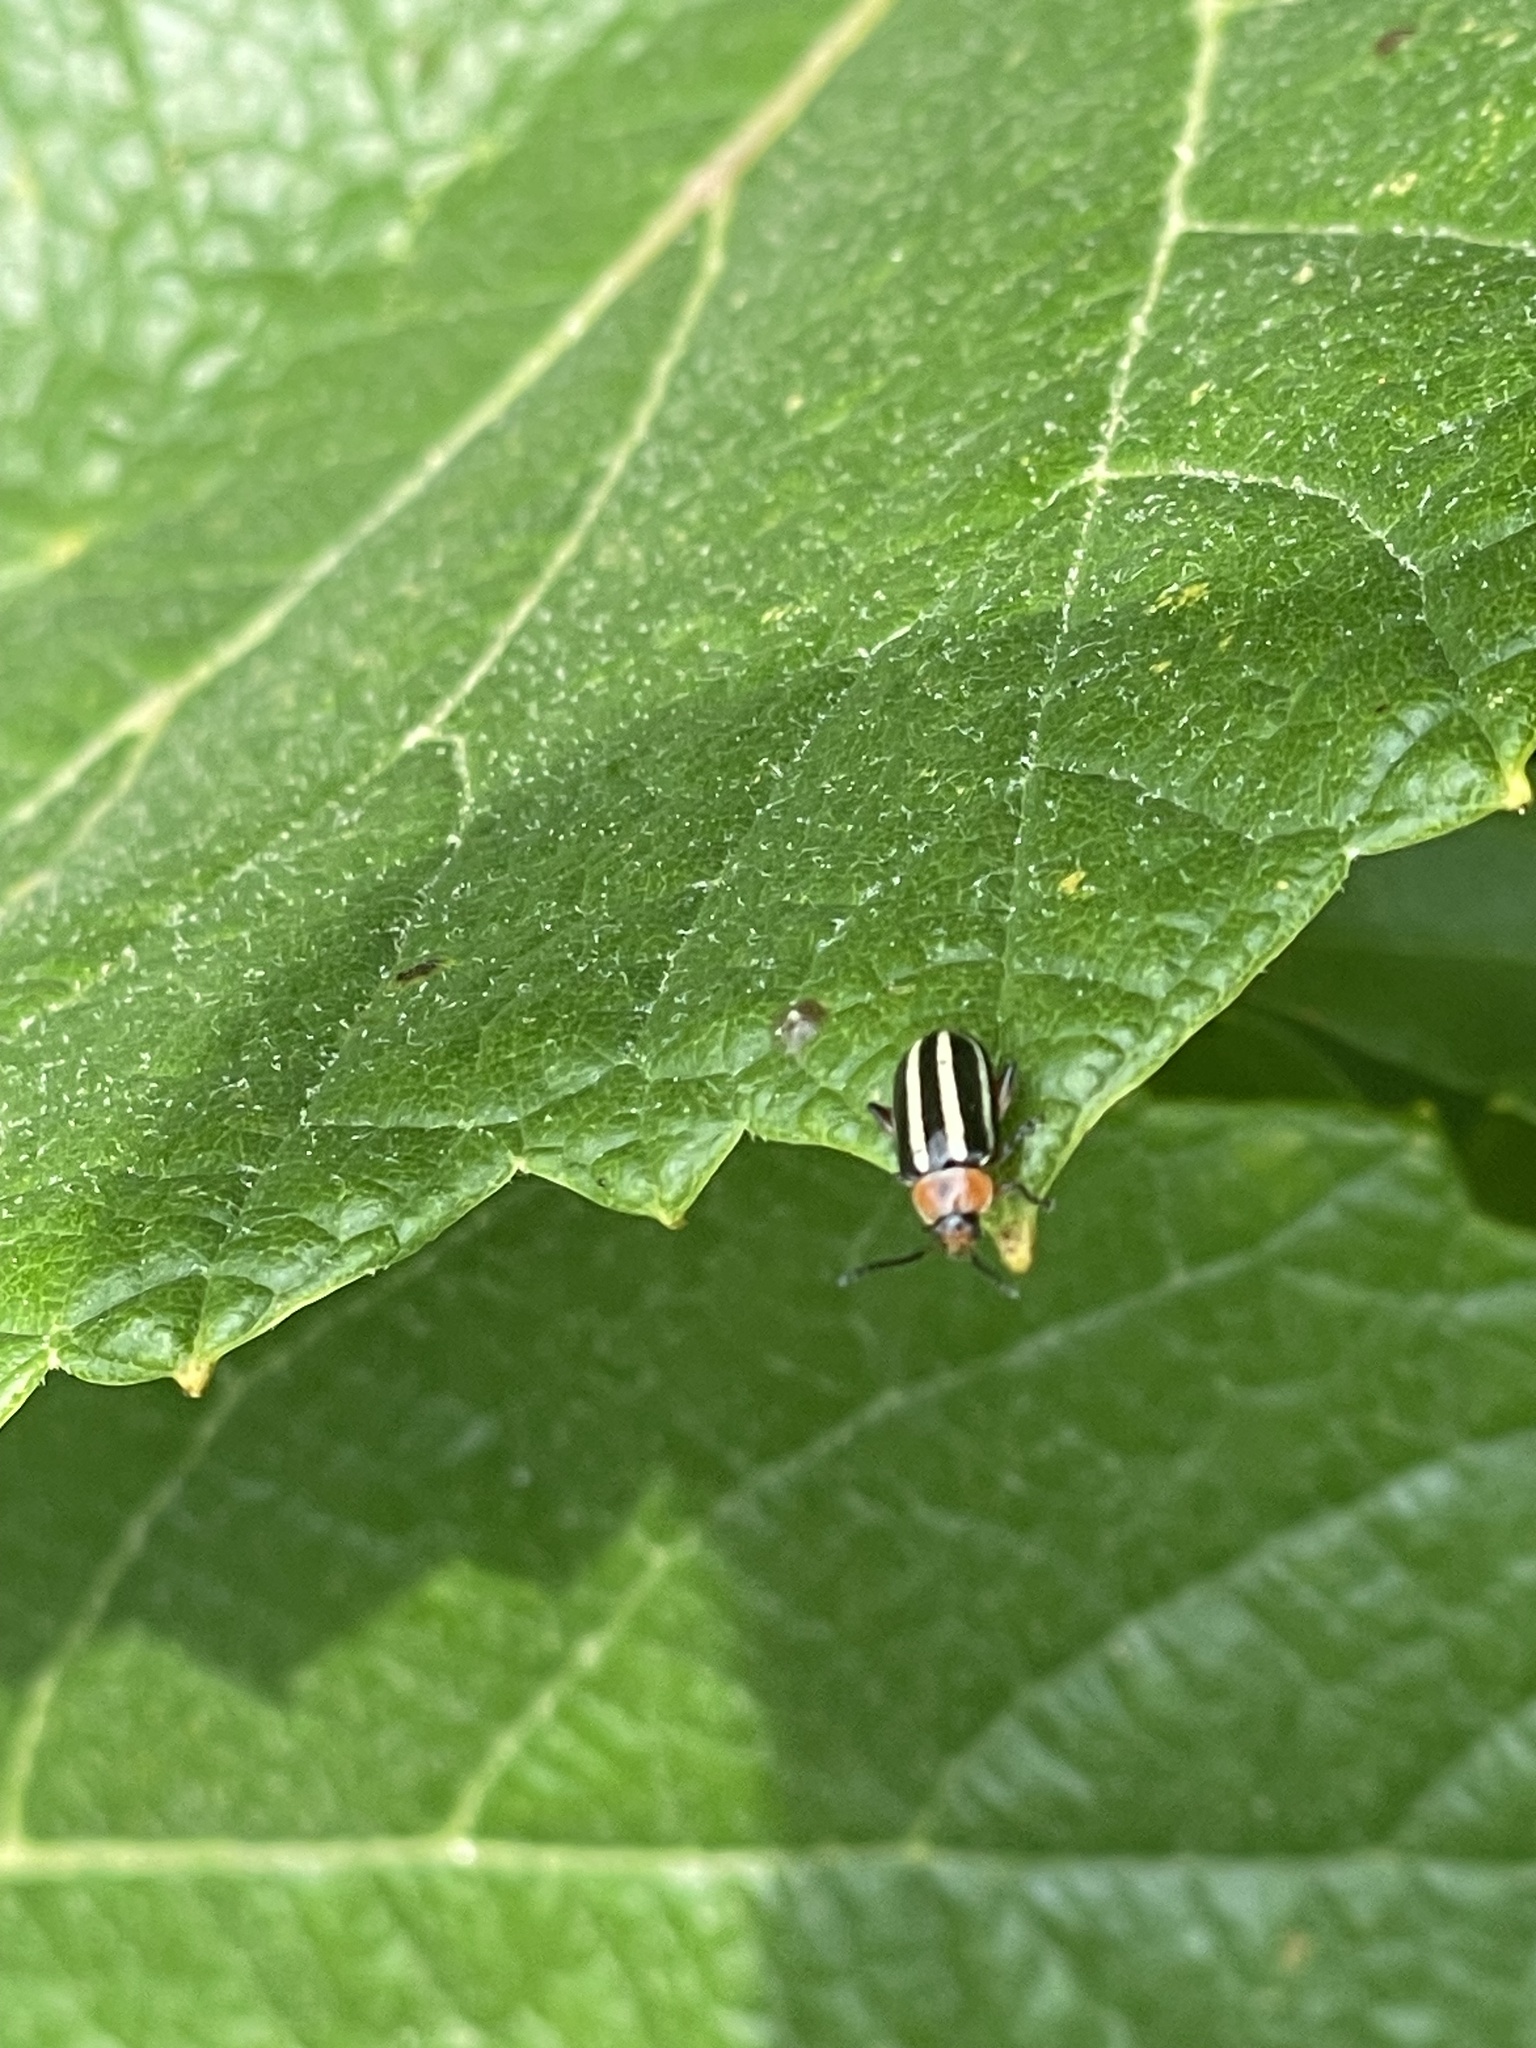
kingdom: Animalia
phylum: Arthropoda
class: Insecta
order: Coleoptera
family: Chrysomelidae
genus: Disonycha
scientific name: Disonycha glabrata
